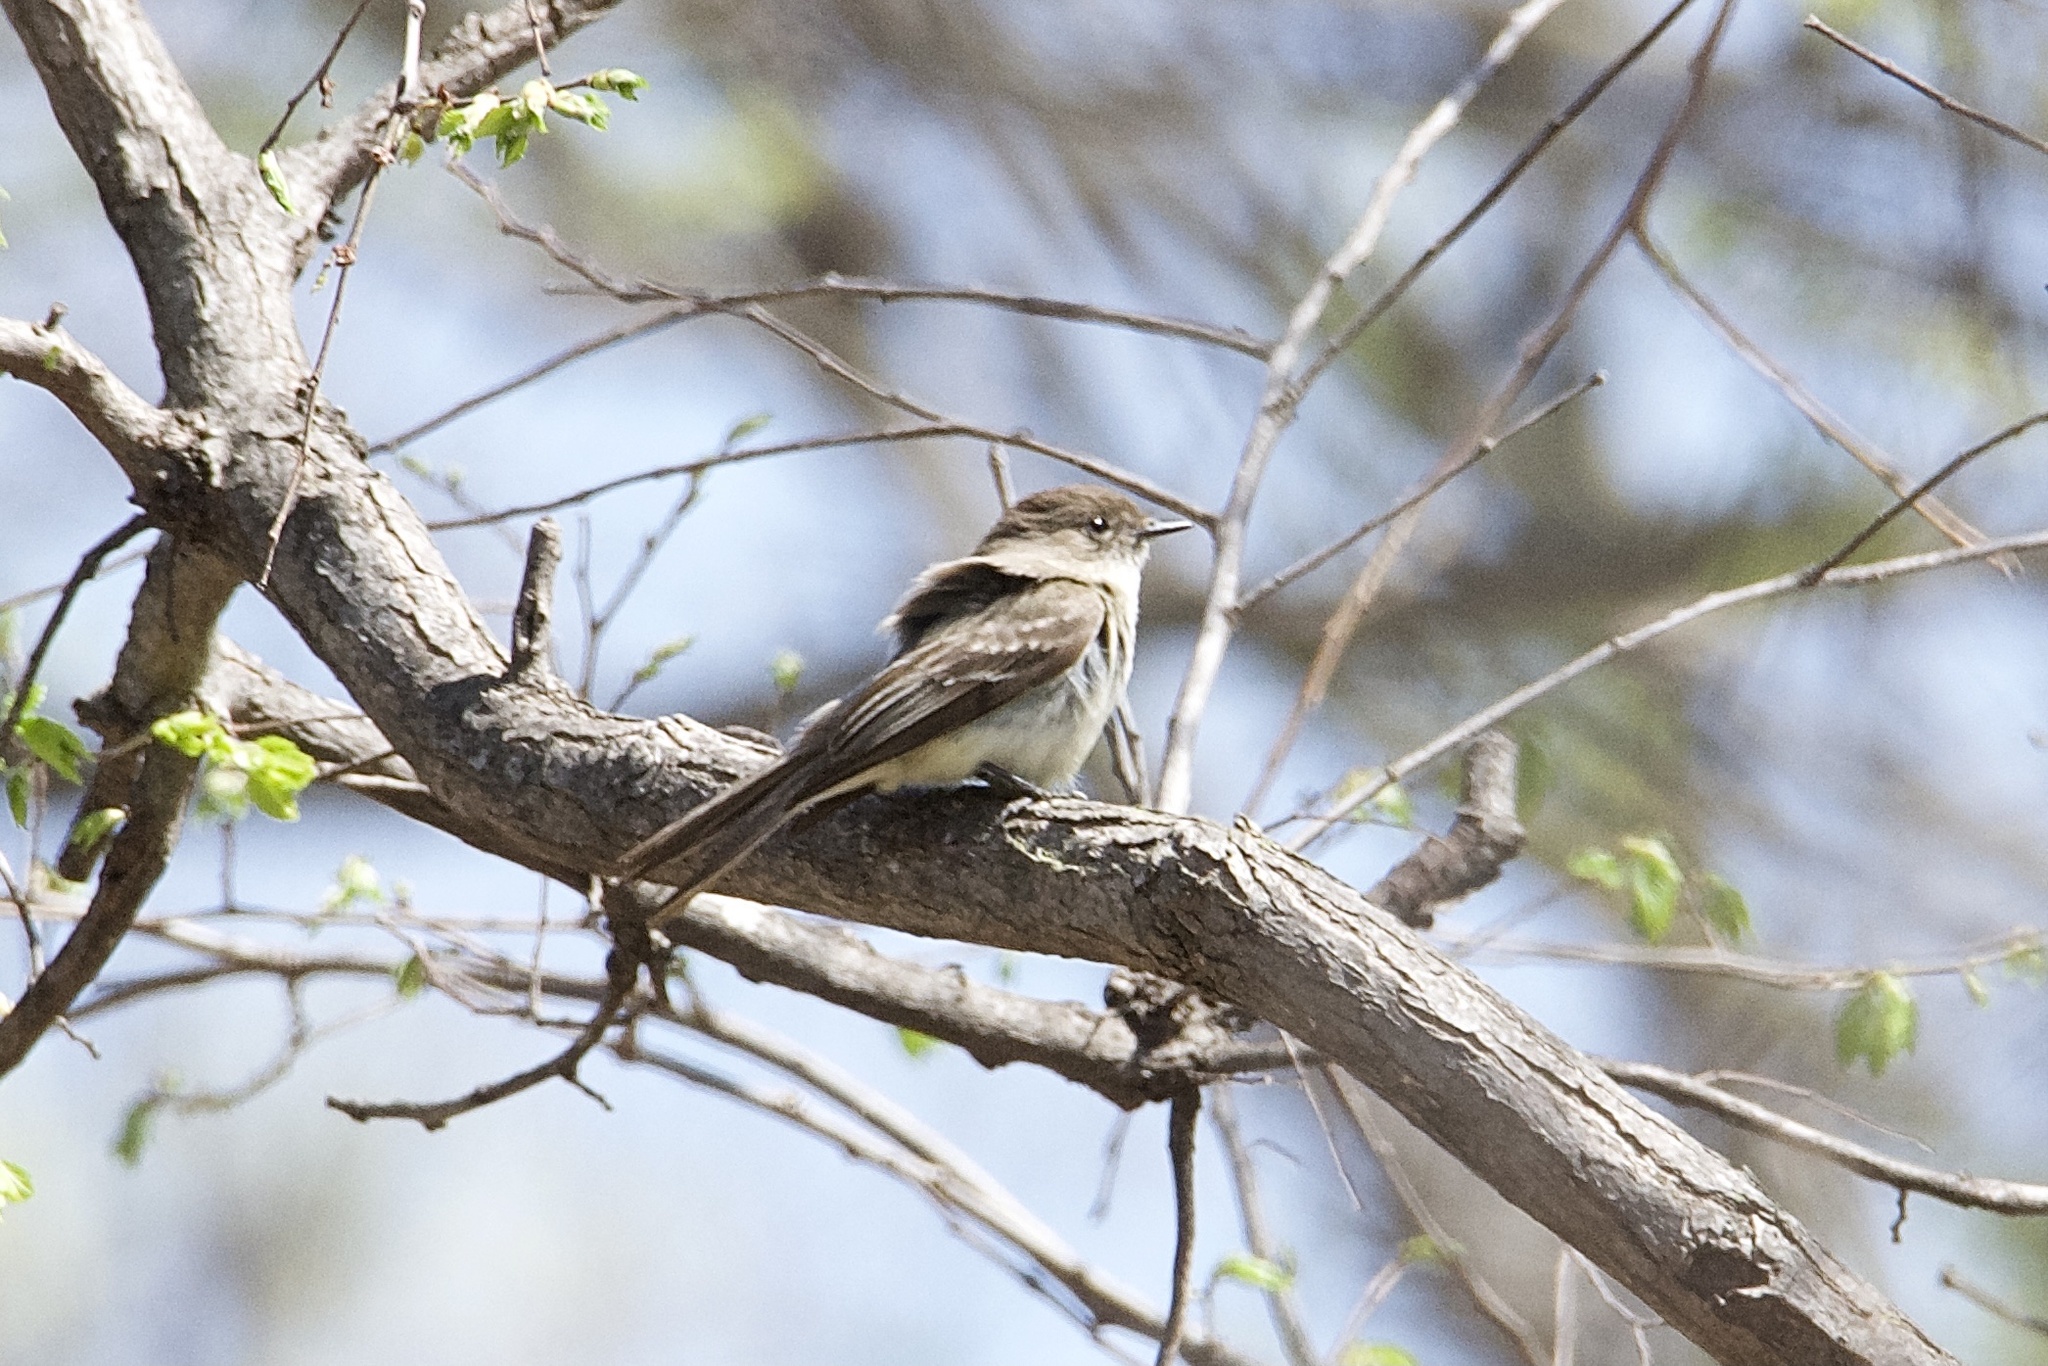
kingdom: Animalia
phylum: Chordata
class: Aves
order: Passeriformes
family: Tyrannidae
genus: Sayornis
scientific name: Sayornis phoebe
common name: Eastern phoebe
